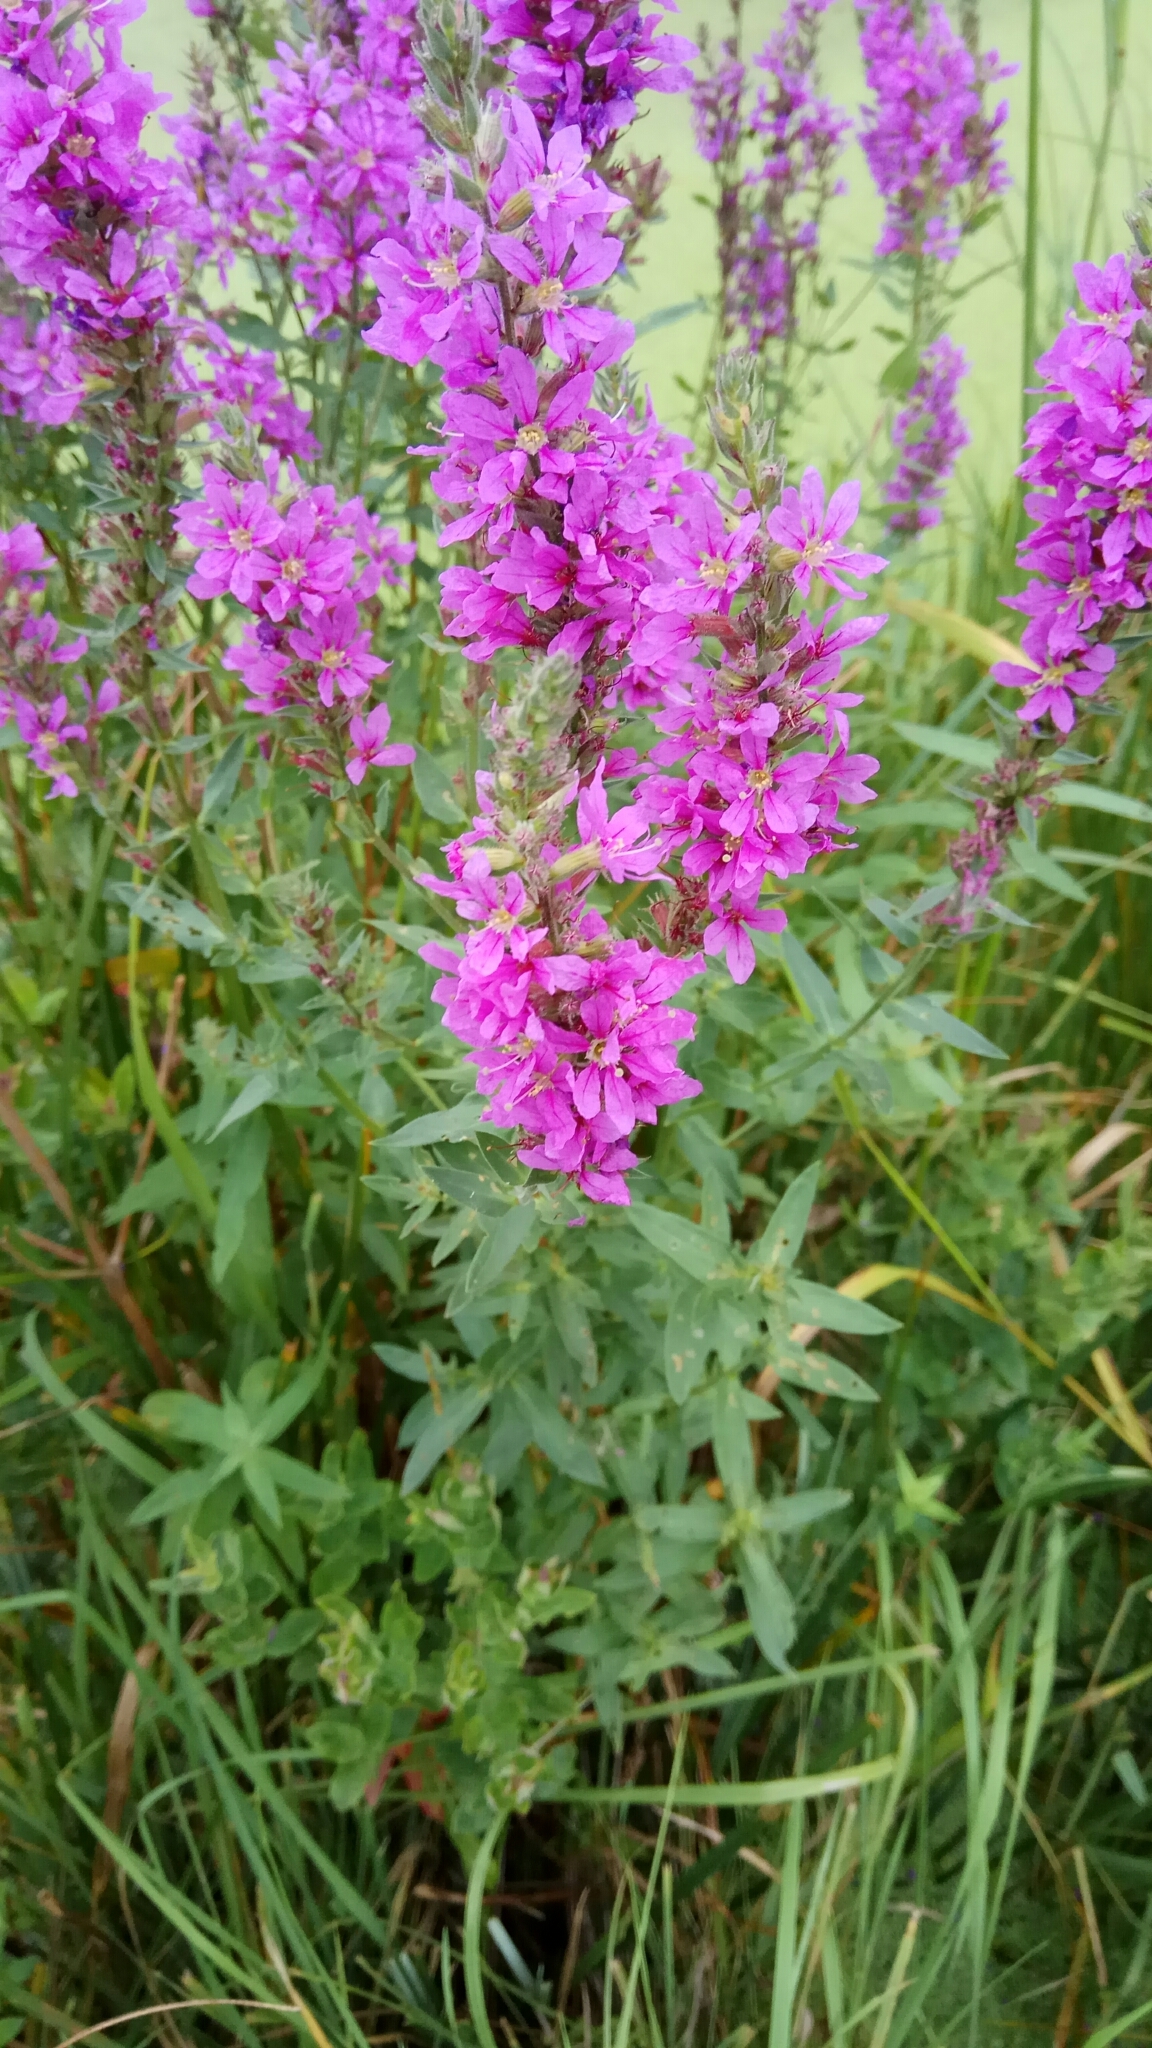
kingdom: Plantae
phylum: Tracheophyta
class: Magnoliopsida
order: Myrtales
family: Lythraceae
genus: Lythrum
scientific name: Lythrum salicaria
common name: Purple loosestrife
